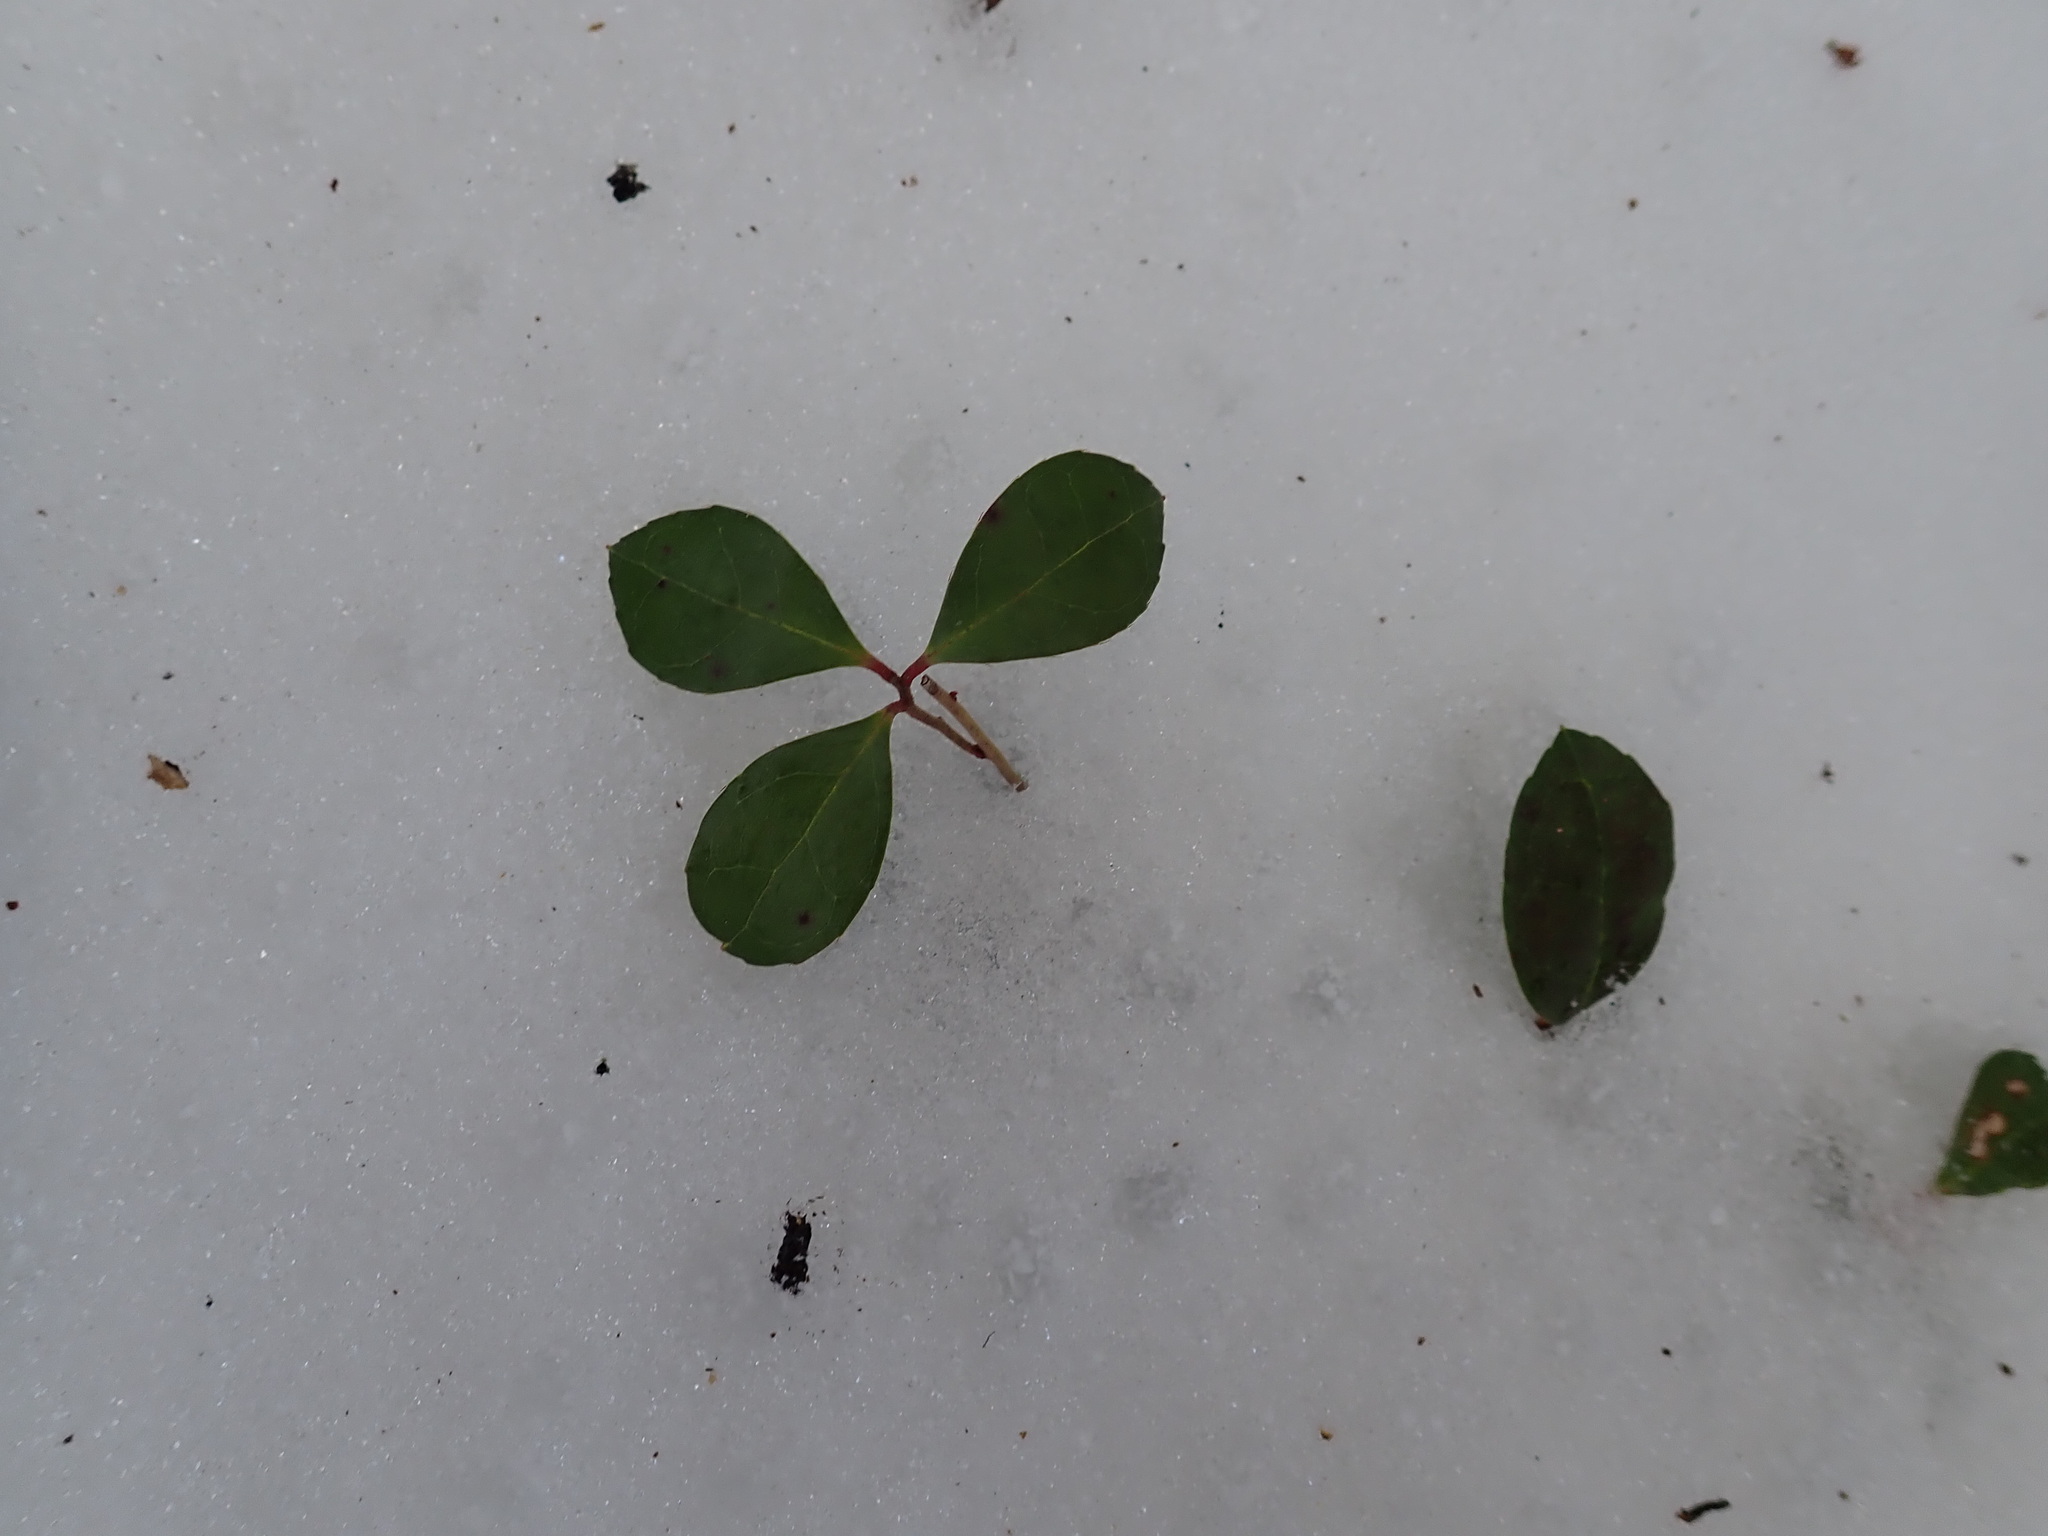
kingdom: Plantae
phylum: Tracheophyta
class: Magnoliopsida
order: Ericales
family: Ericaceae
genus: Gaultheria
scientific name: Gaultheria procumbens
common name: Checkerberry
